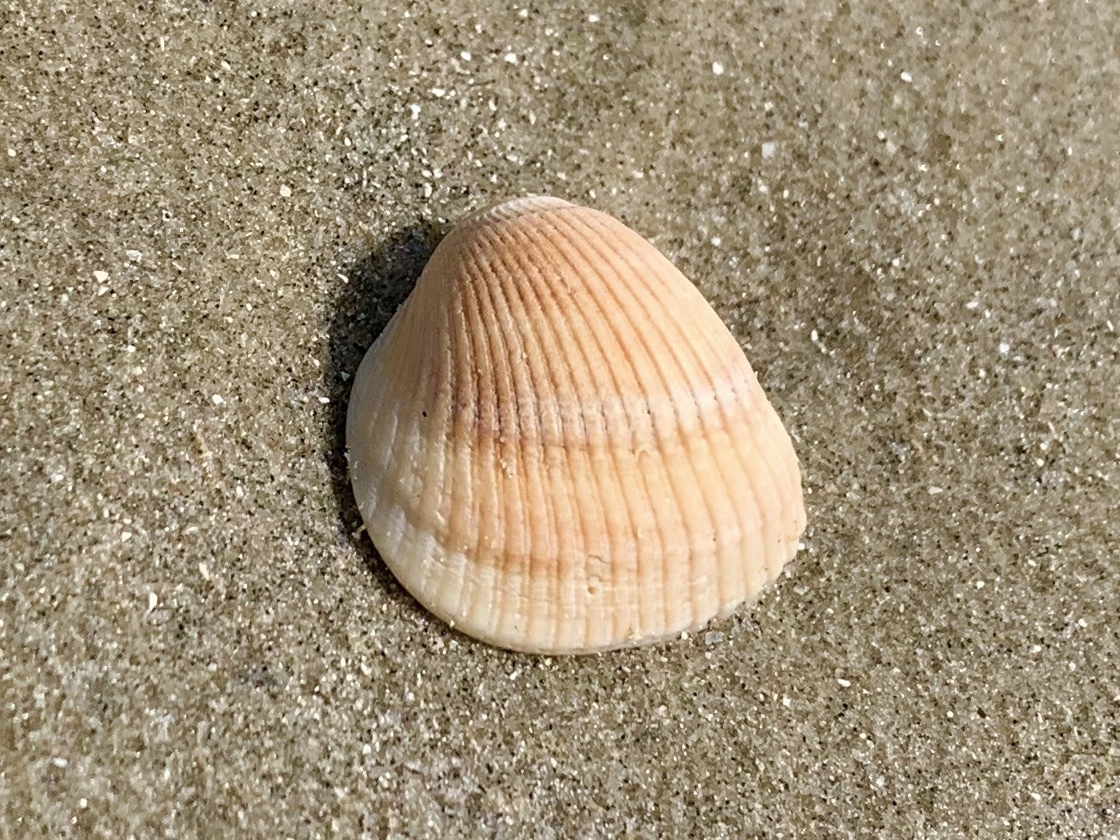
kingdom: Animalia
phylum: Mollusca
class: Bivalvia
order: Arcida
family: Arcidae
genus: Lunarca
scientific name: Lunarca ovalis
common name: Blood ark
